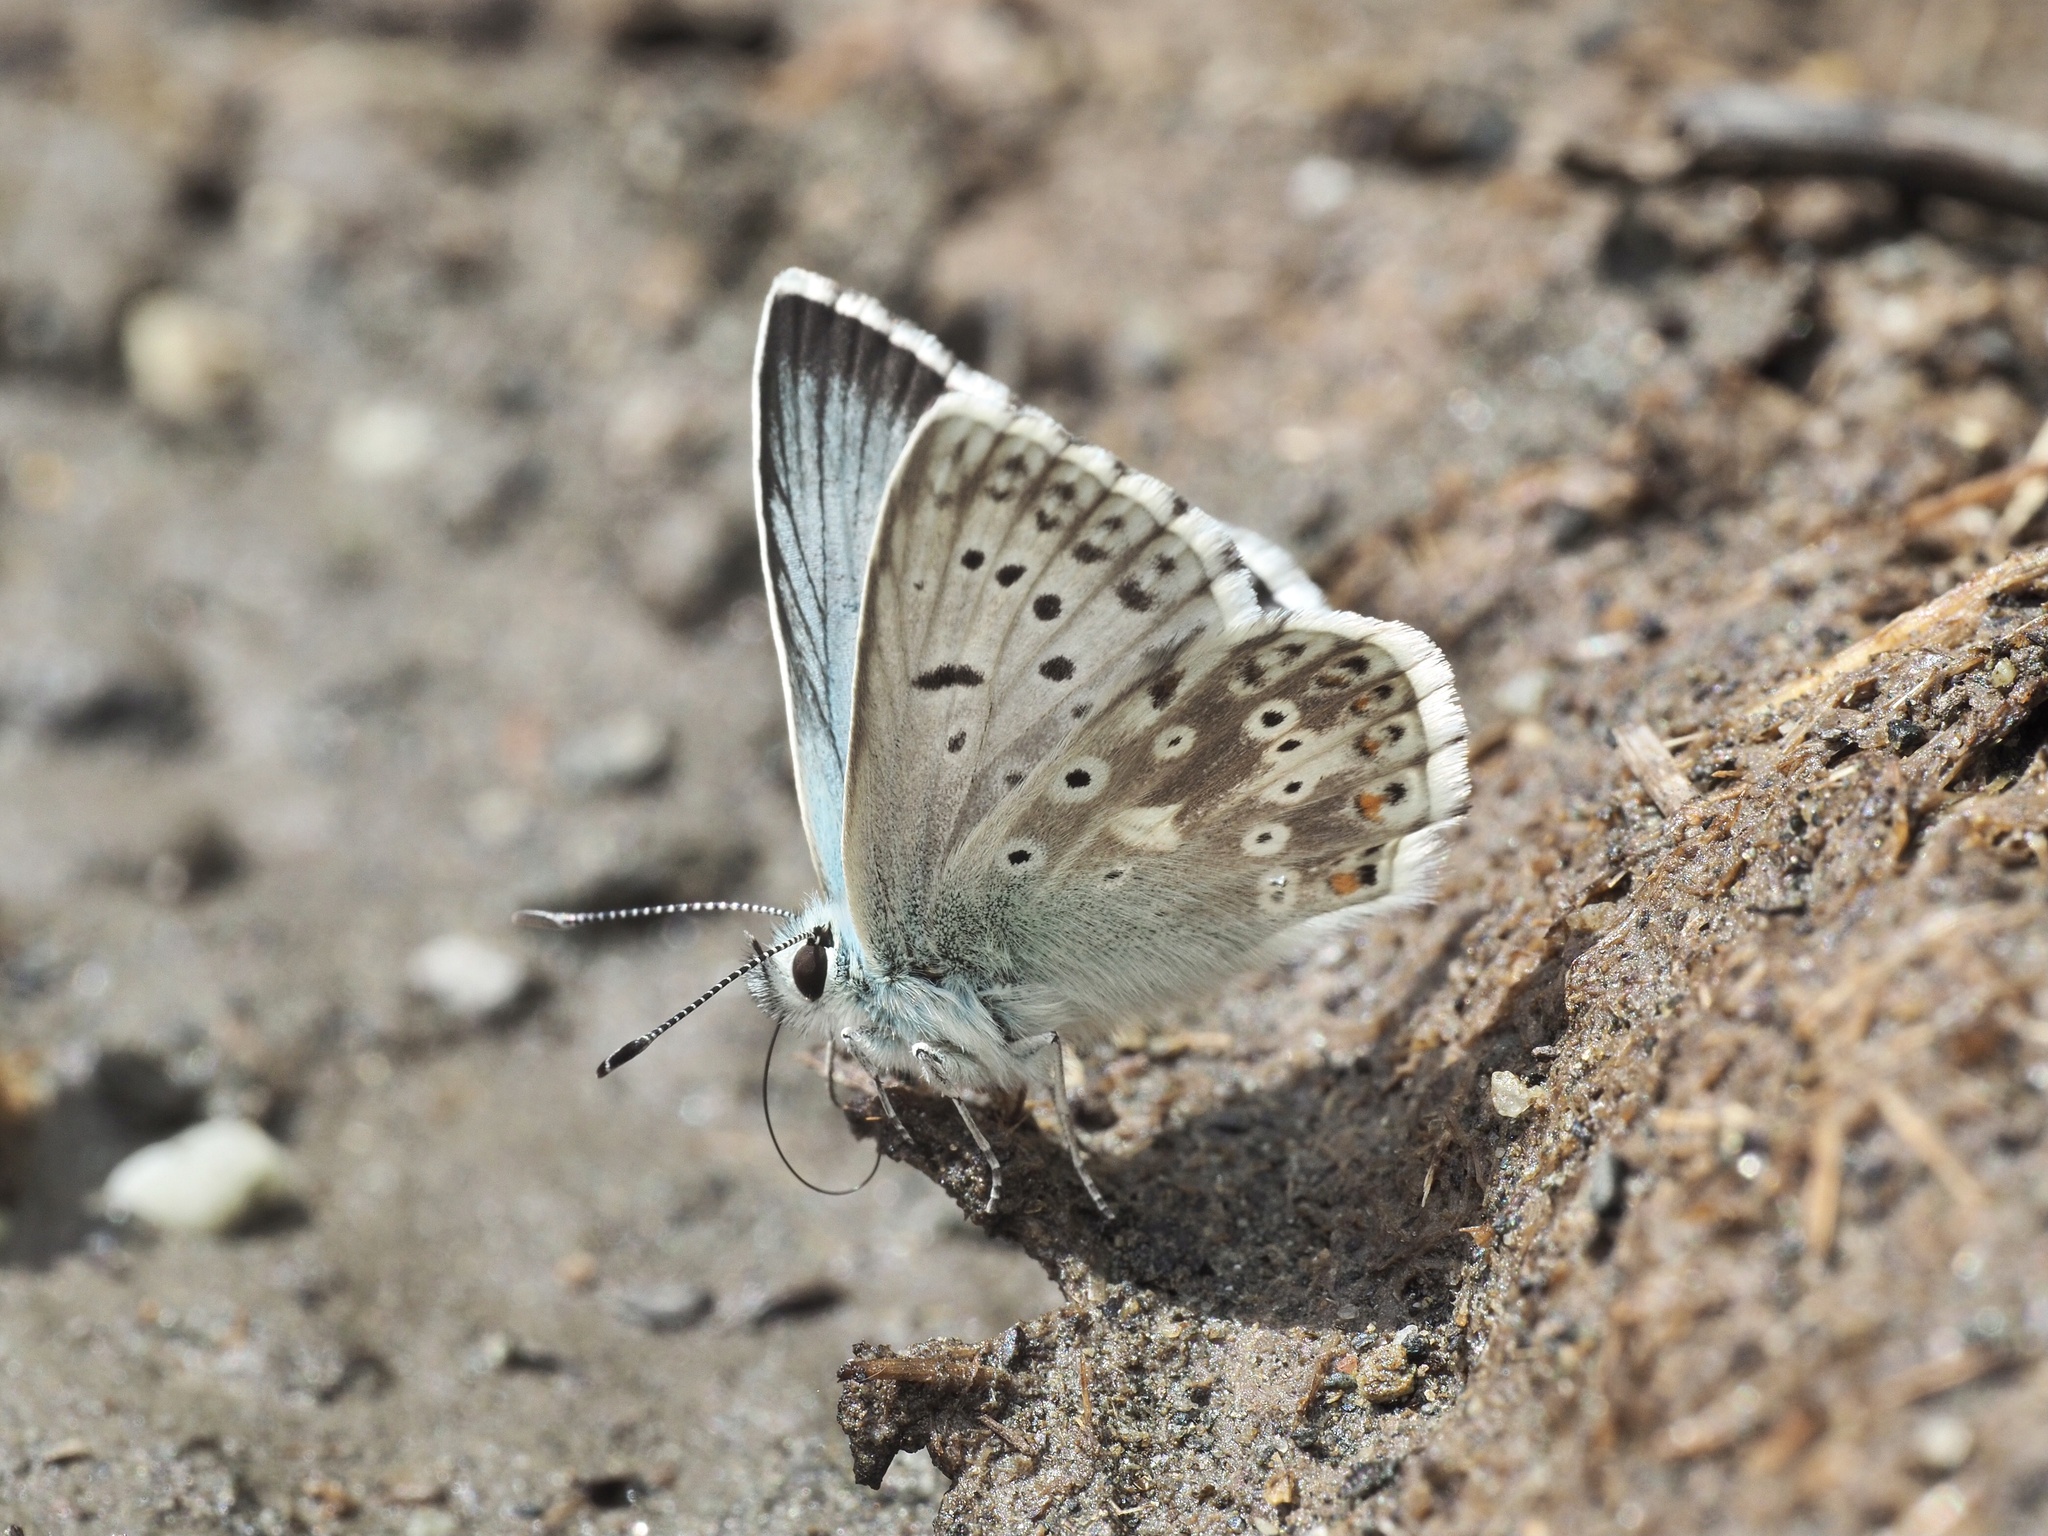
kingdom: Animalia
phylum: Arthropoda
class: Insecta
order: Lepidoptera
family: Lycaenidae
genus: Lysandra
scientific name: Lysandra coridon
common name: Chalkhill blue
